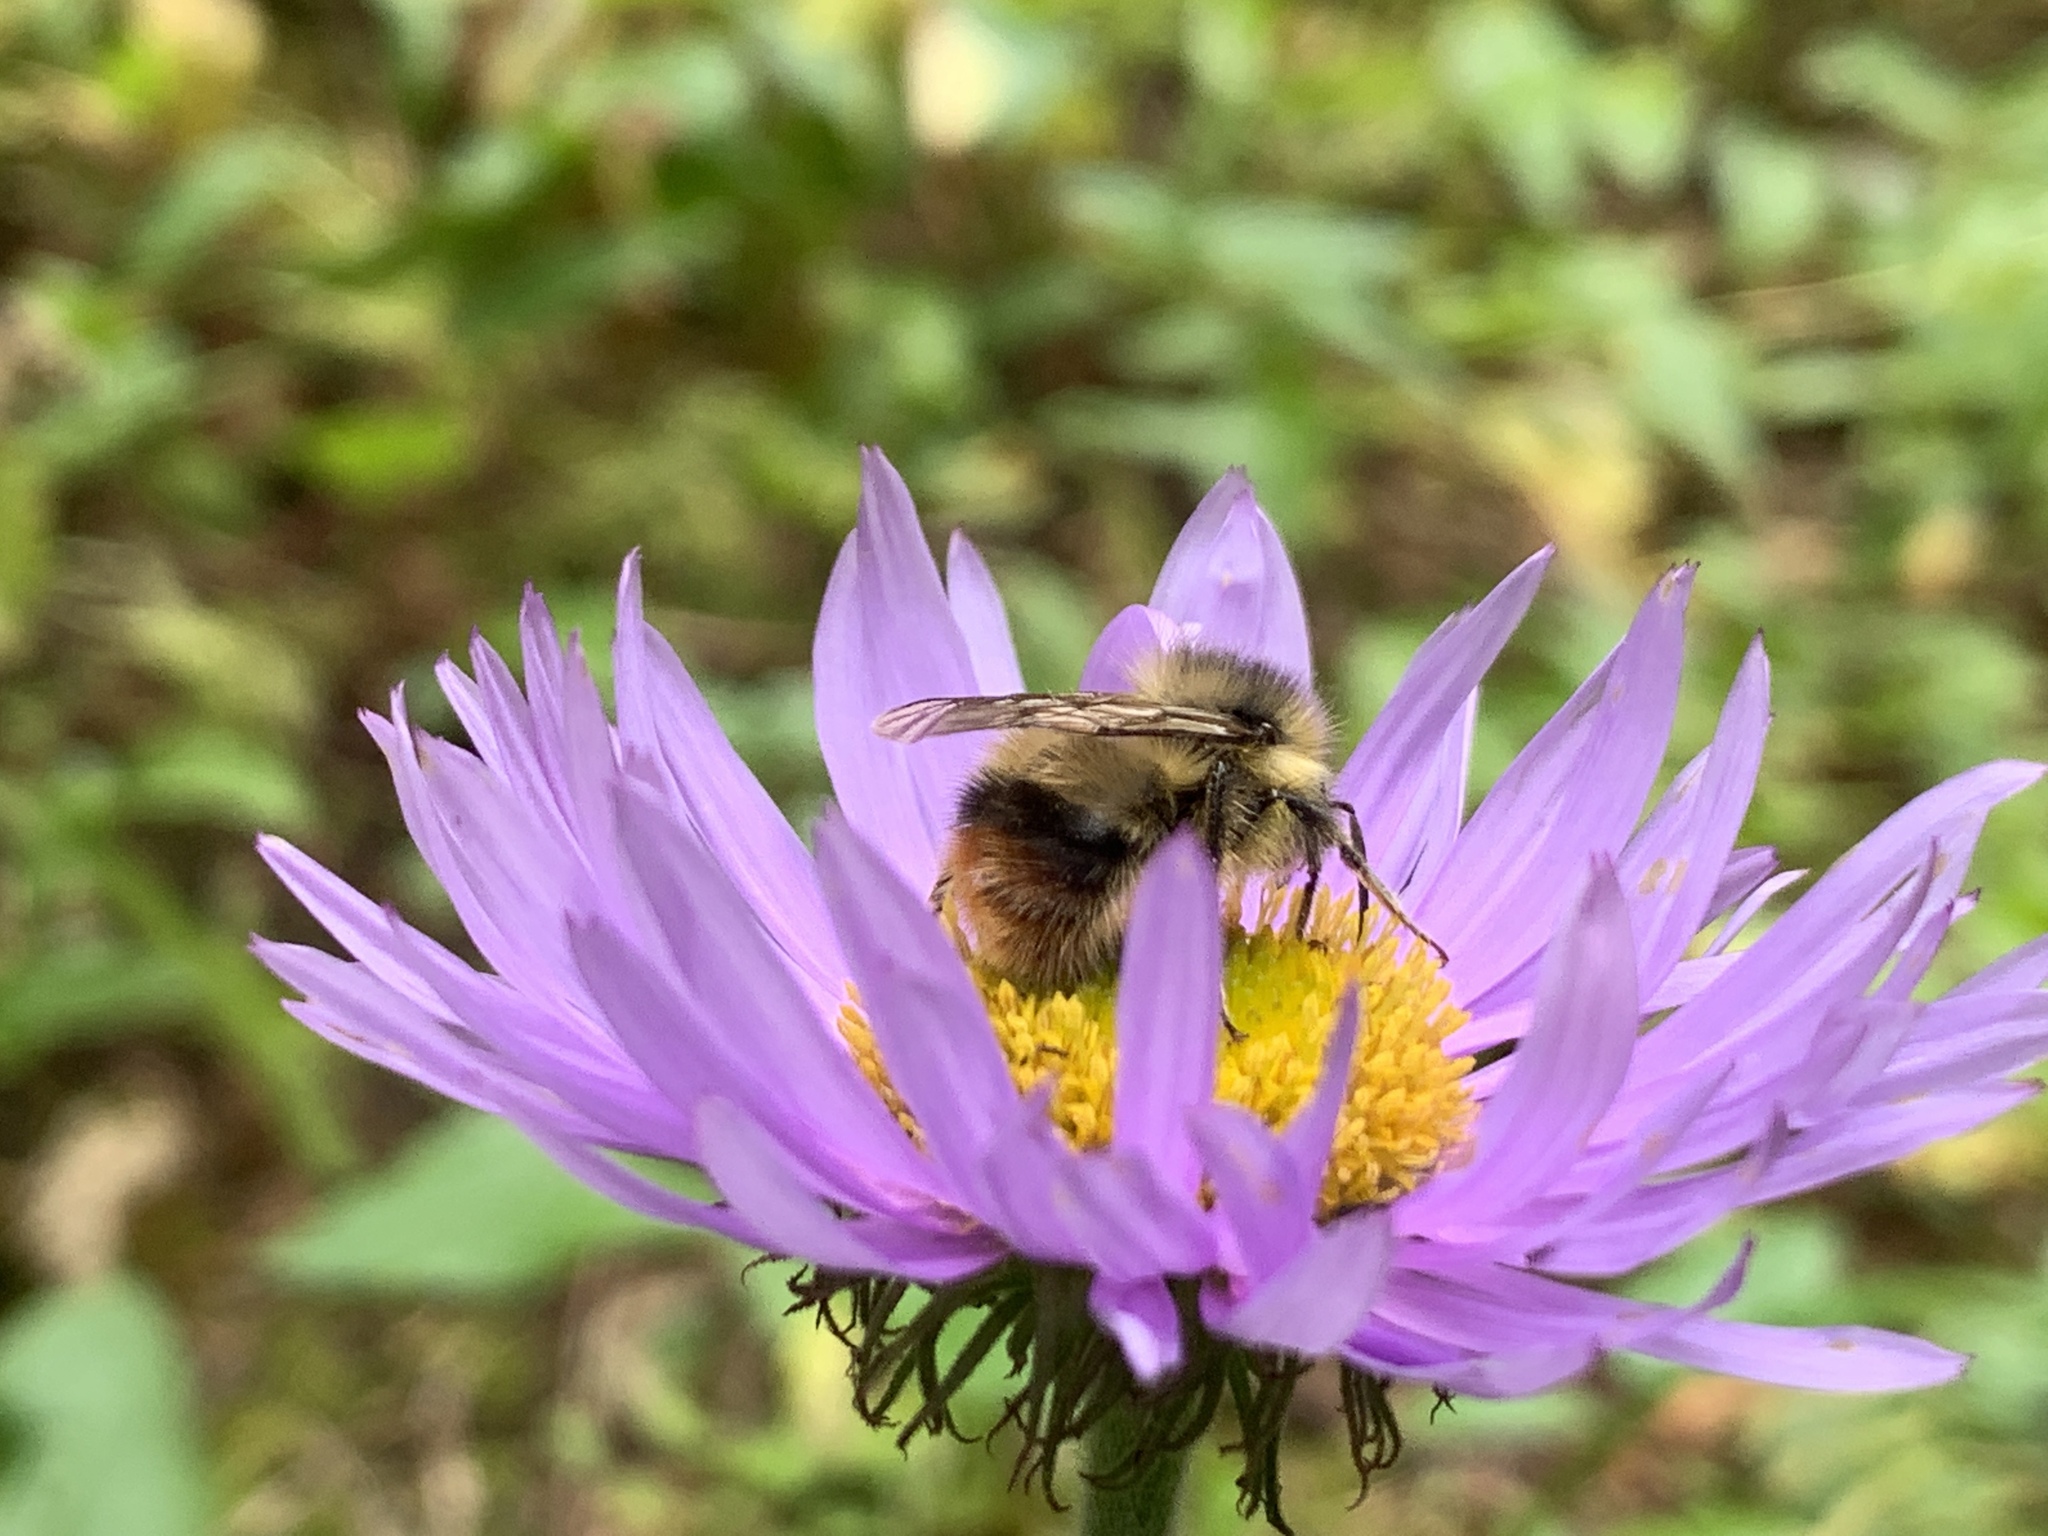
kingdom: Animalia
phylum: Arthropoda
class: Insecta
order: Hymenoptera
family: Apidae
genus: Bombus
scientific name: Bombus mixtus
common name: Fuzzy-horned bumble bee
